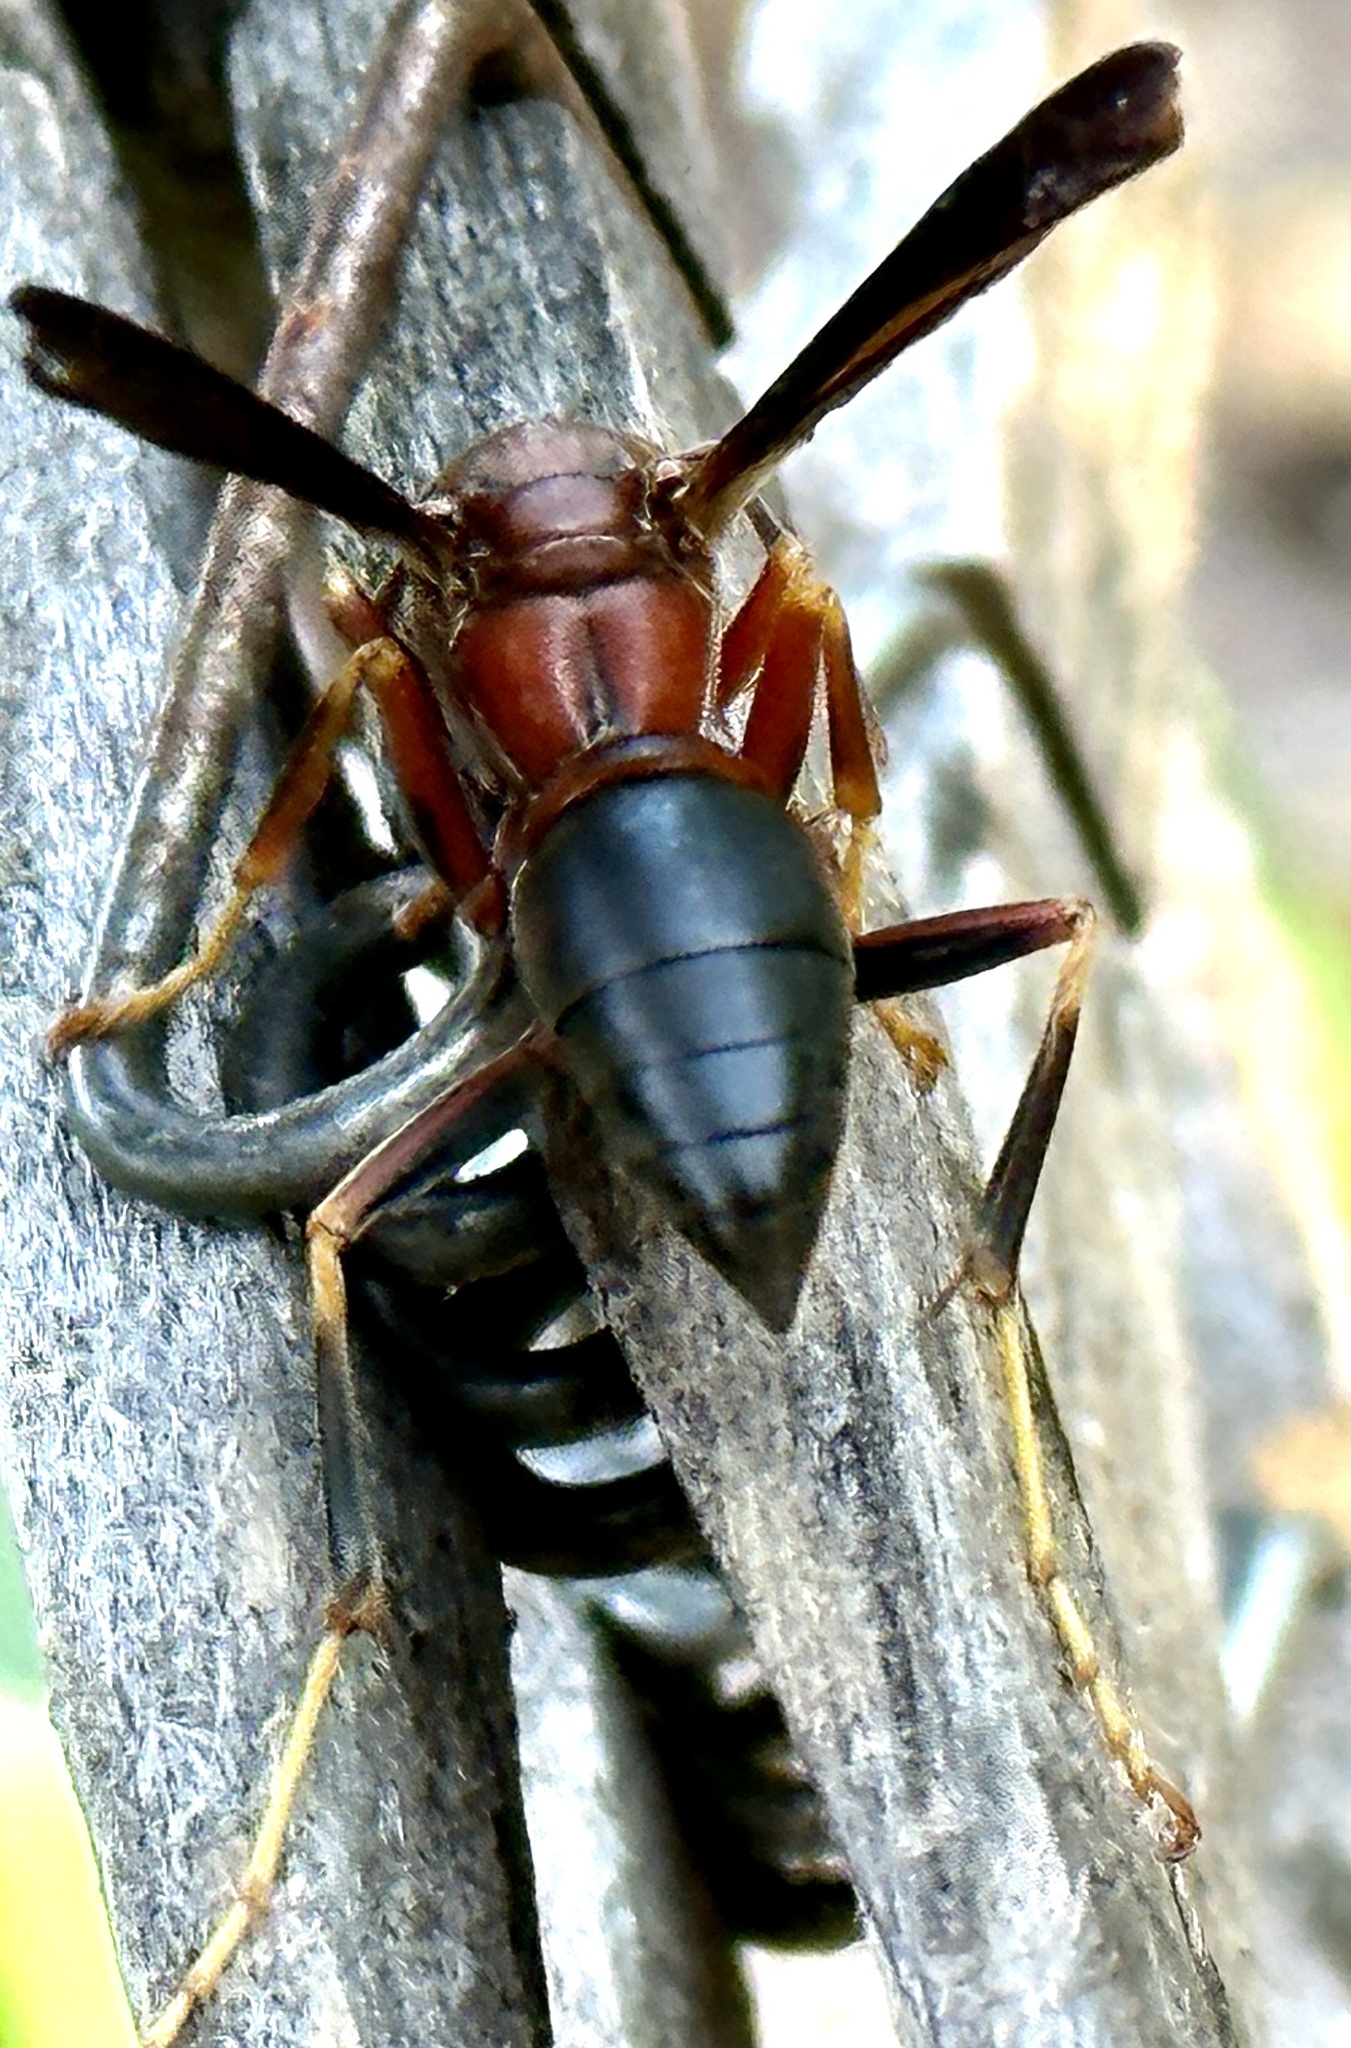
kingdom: Animalia
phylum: Arthropoda
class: Insecta
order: Hymenoptera
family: Eumenidae
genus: Polistes
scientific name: Polistes metricus
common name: Metric paper wasp
